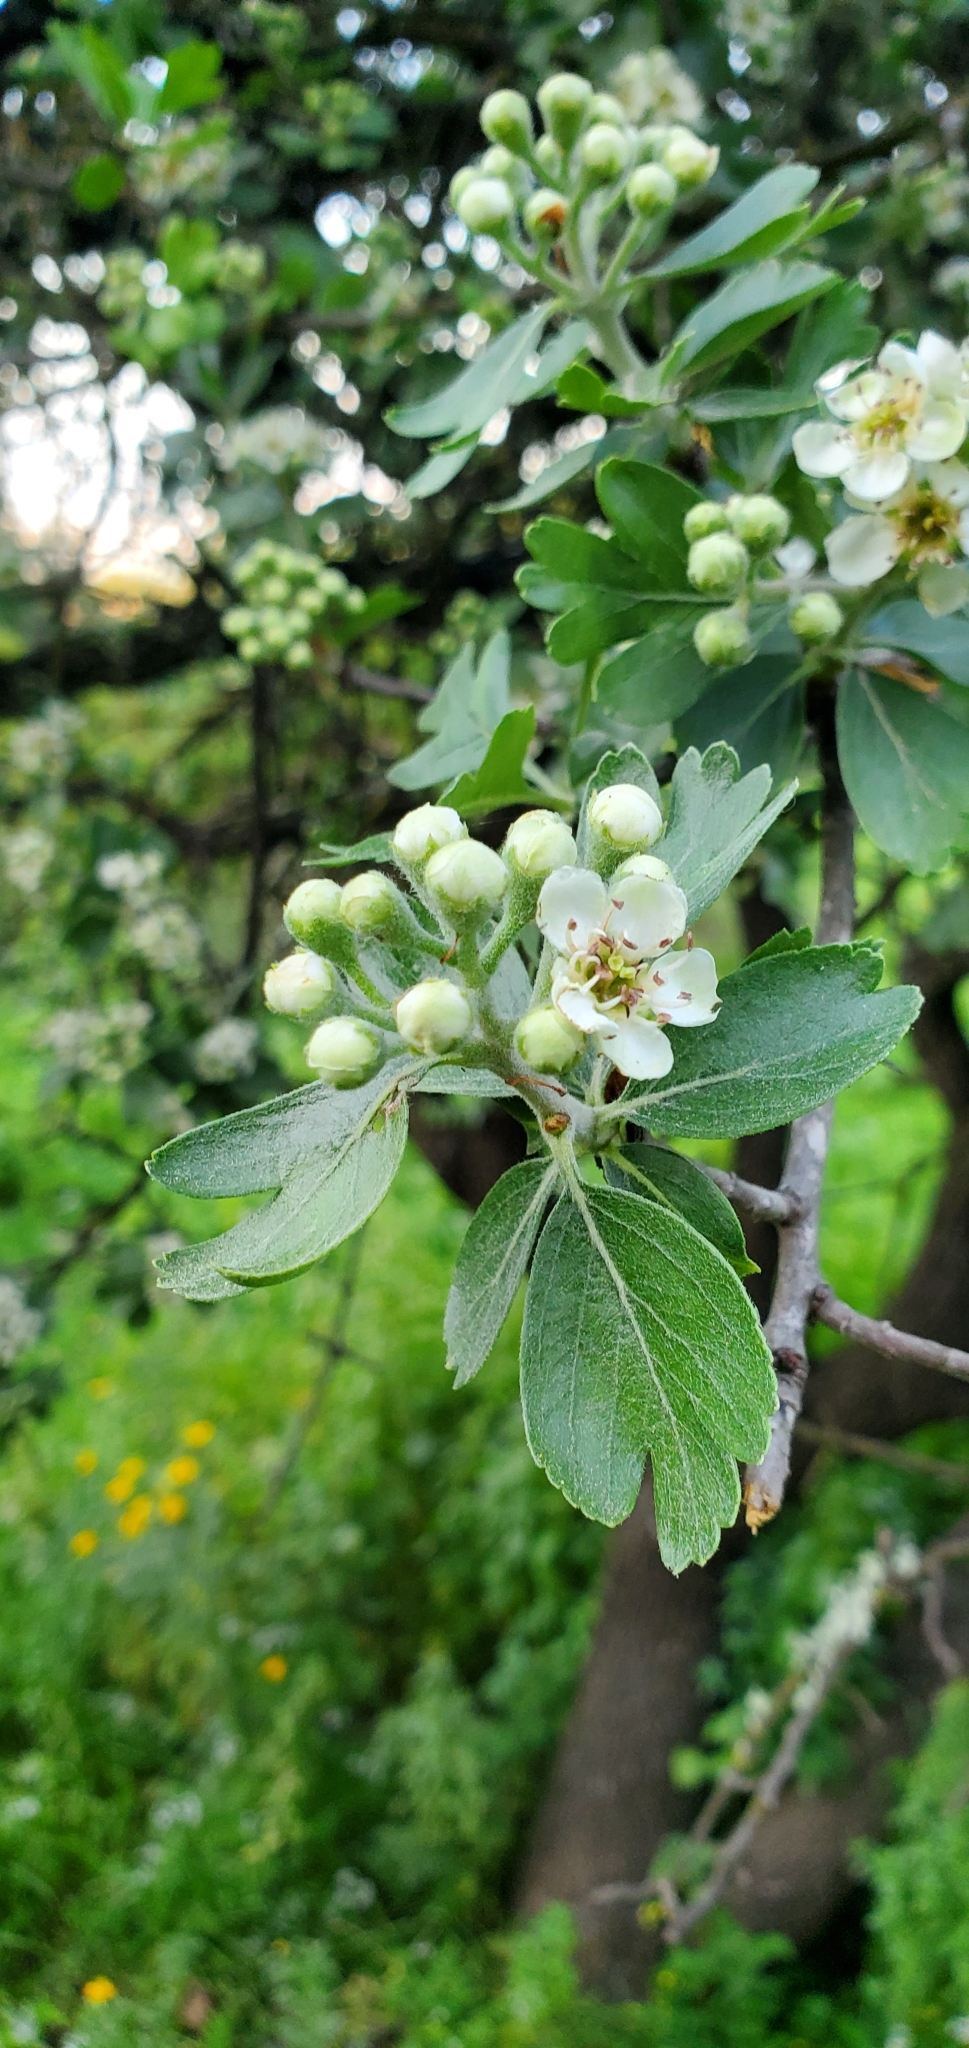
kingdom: Plantae
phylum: Tracheophyta
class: Magnoliopsida
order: Rosales
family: Rosaceae
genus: Crataegus
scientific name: Crataegus azarolus
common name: Azarole
